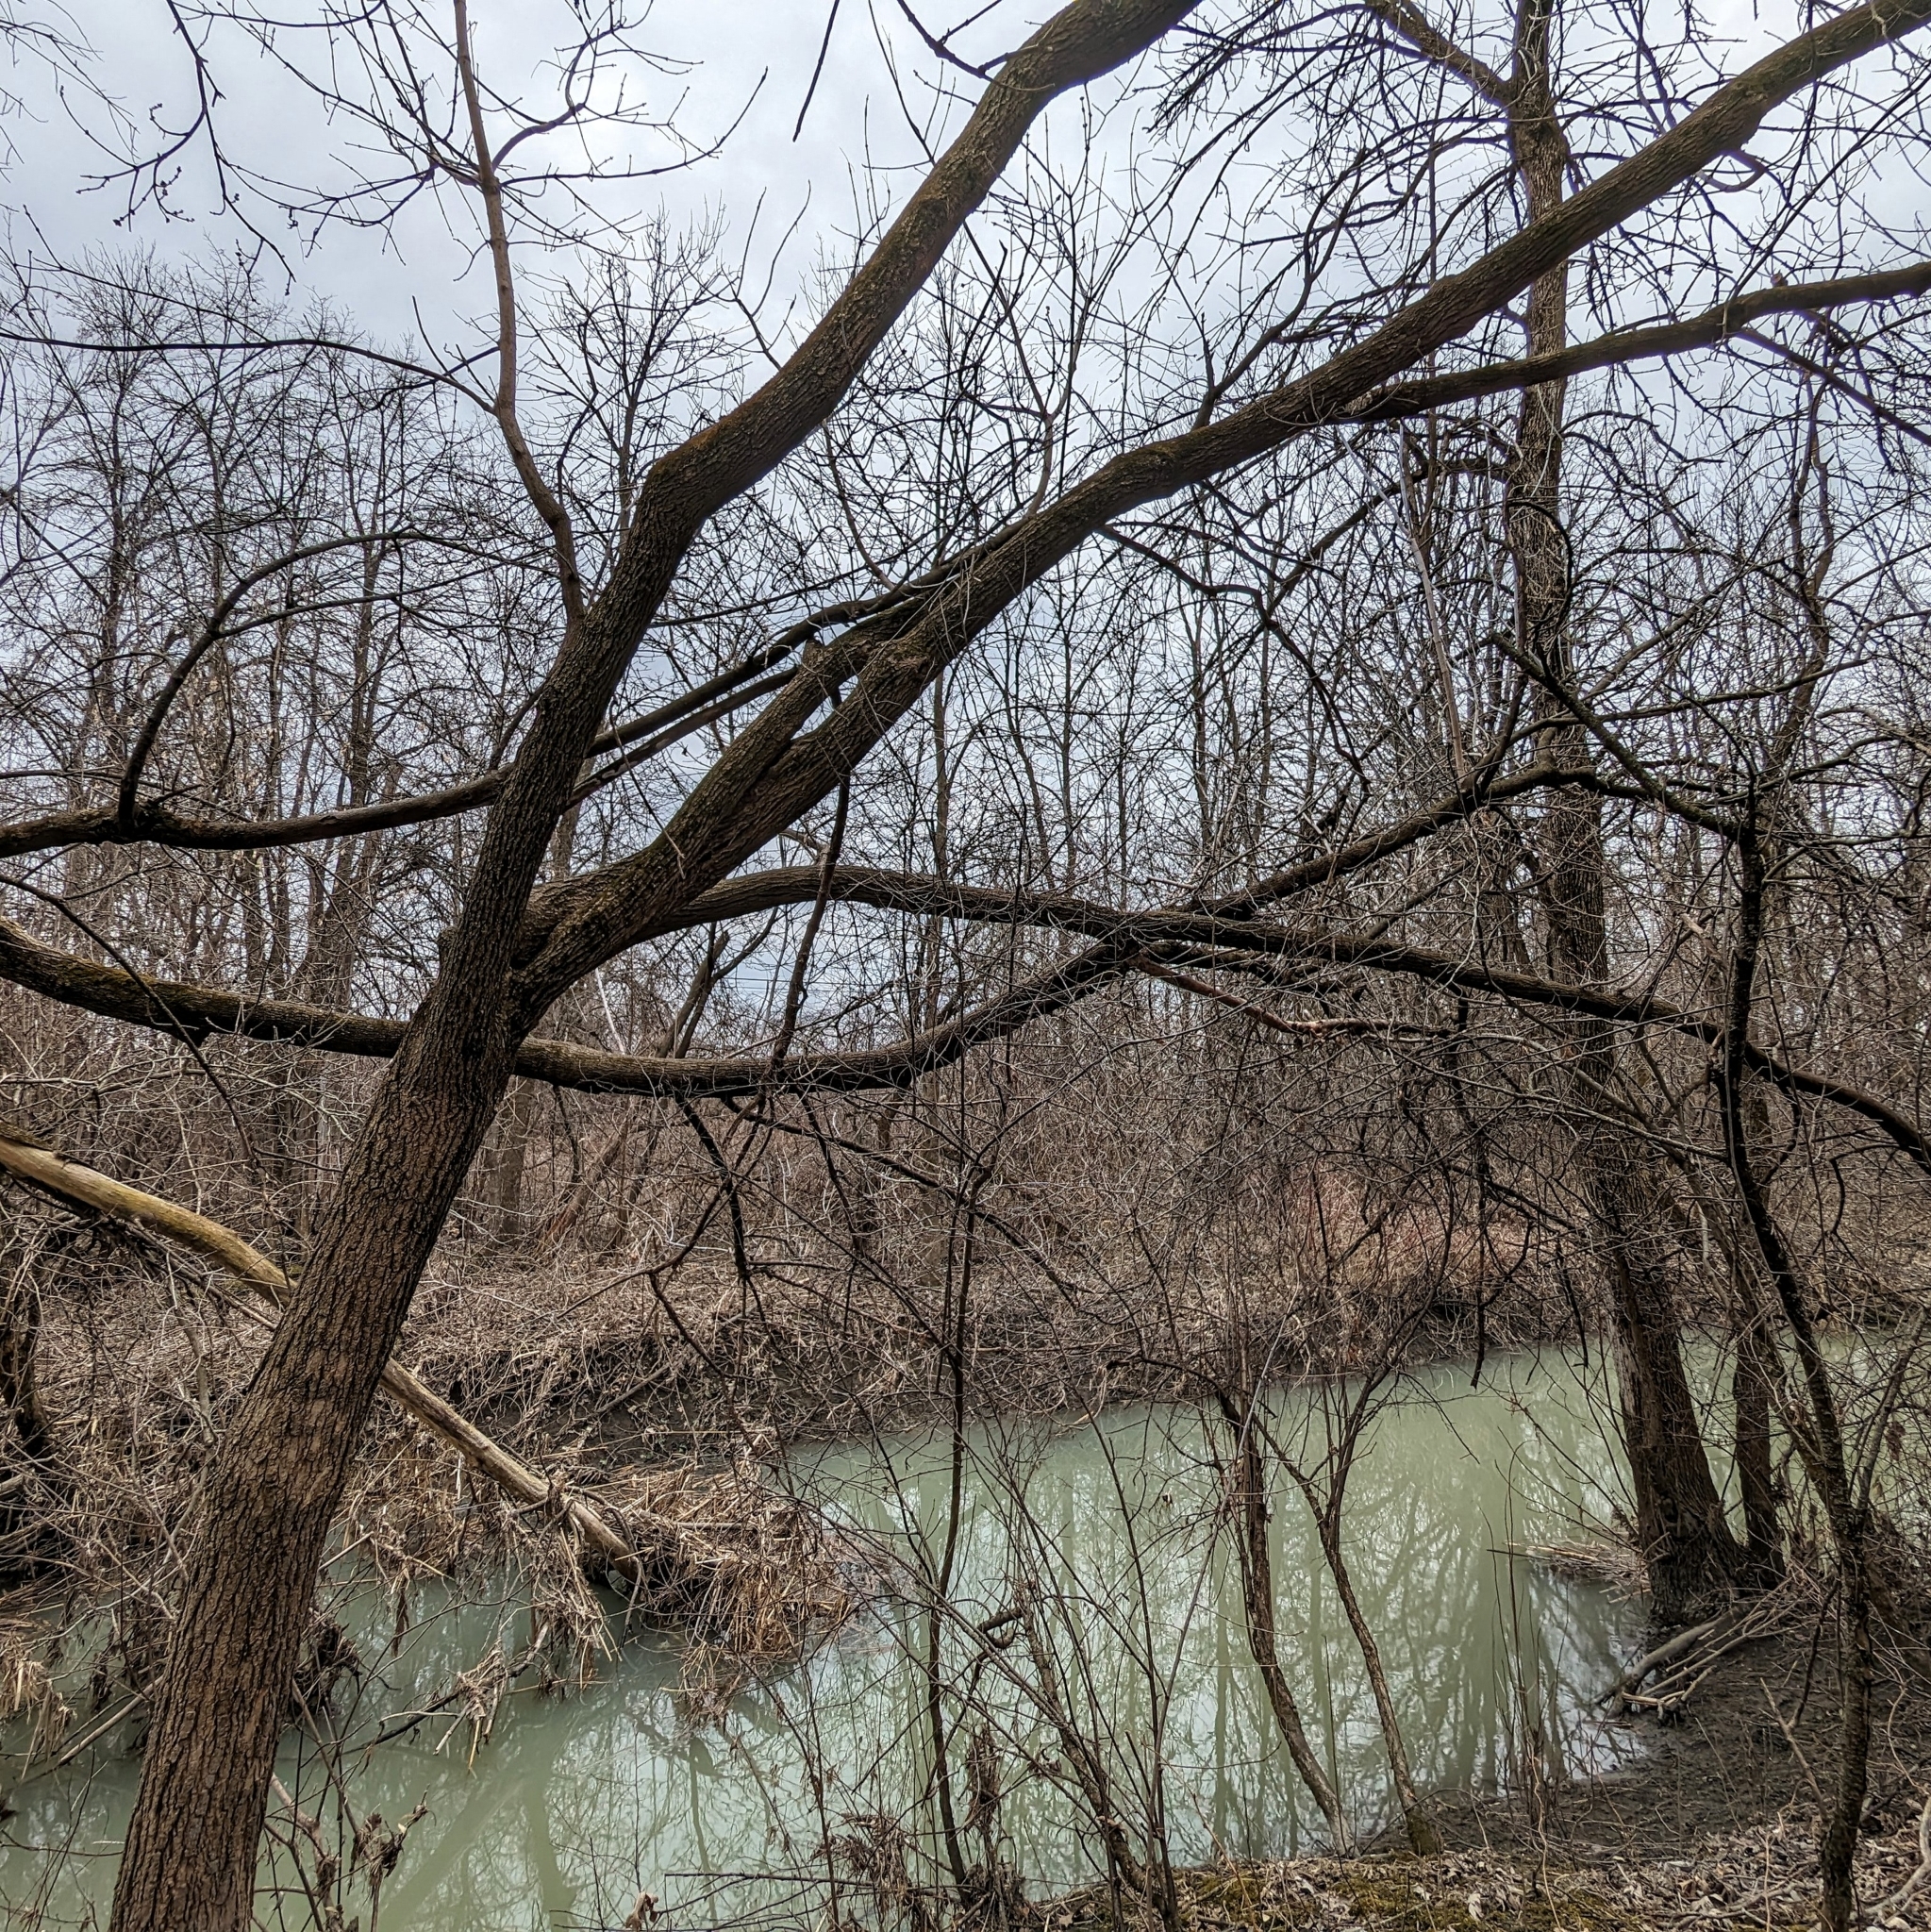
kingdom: Plantae
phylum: Tracheophyta
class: Magnoliopsida
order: Sapindales
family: Sapindaceae
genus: Acer
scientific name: Acer negundo
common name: Ashleaf maple
